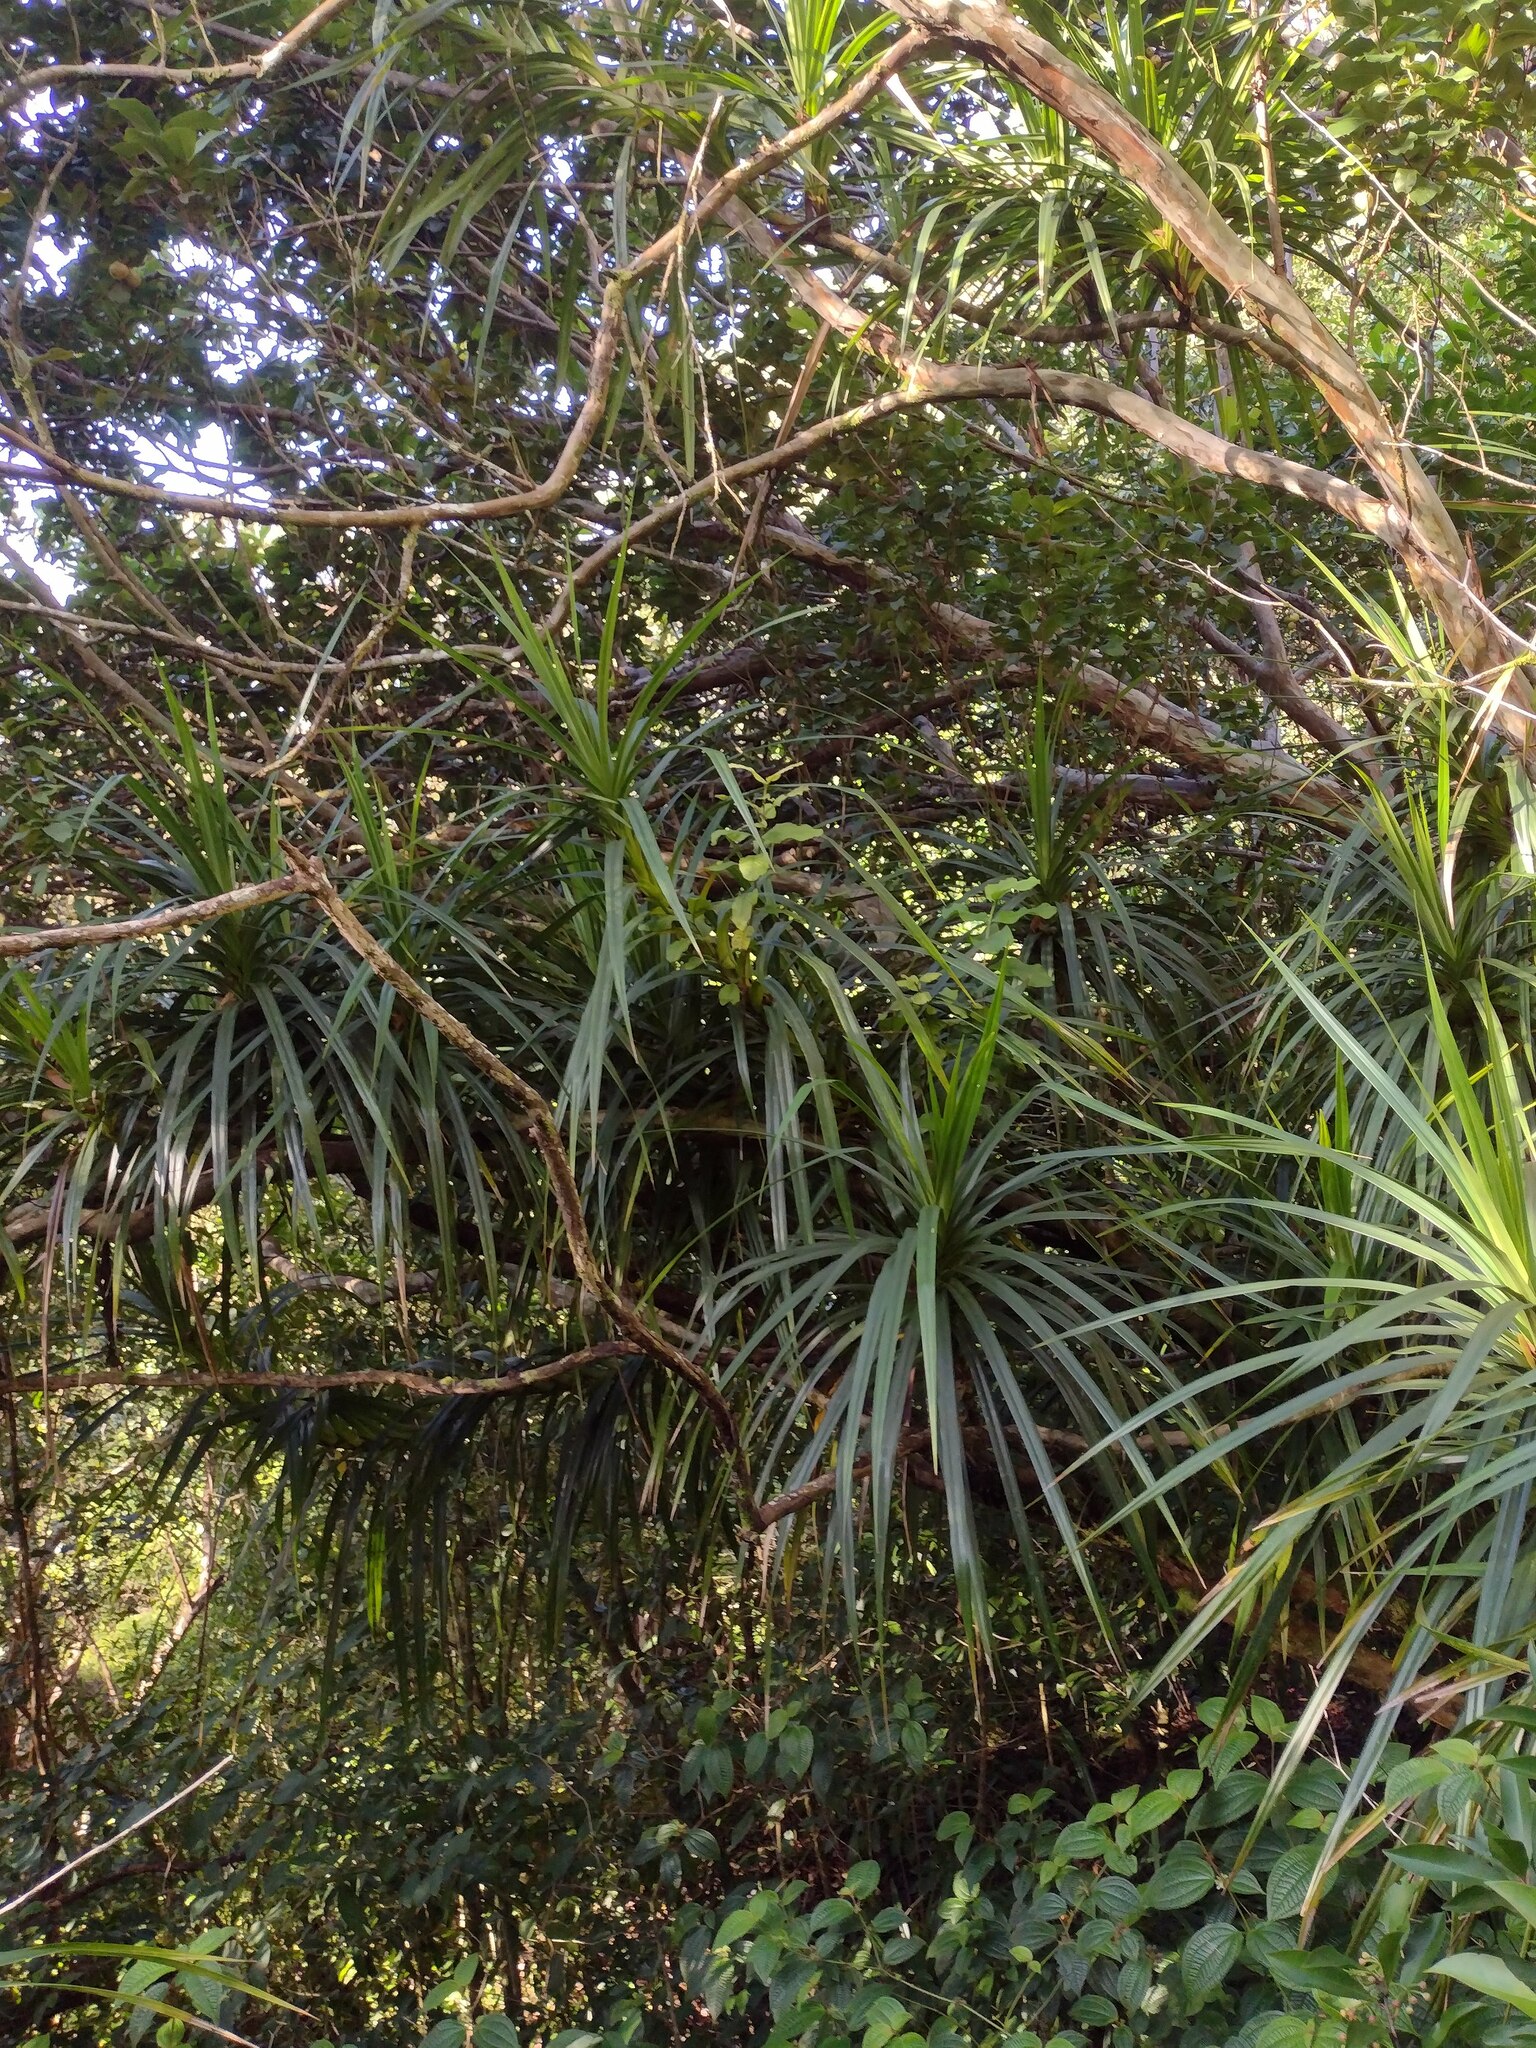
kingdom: Plantae
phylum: Tracheophyta
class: Liliopsida
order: Pandanales
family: Pandanaceae
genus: Freycinetia
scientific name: Freycinetia arborea
